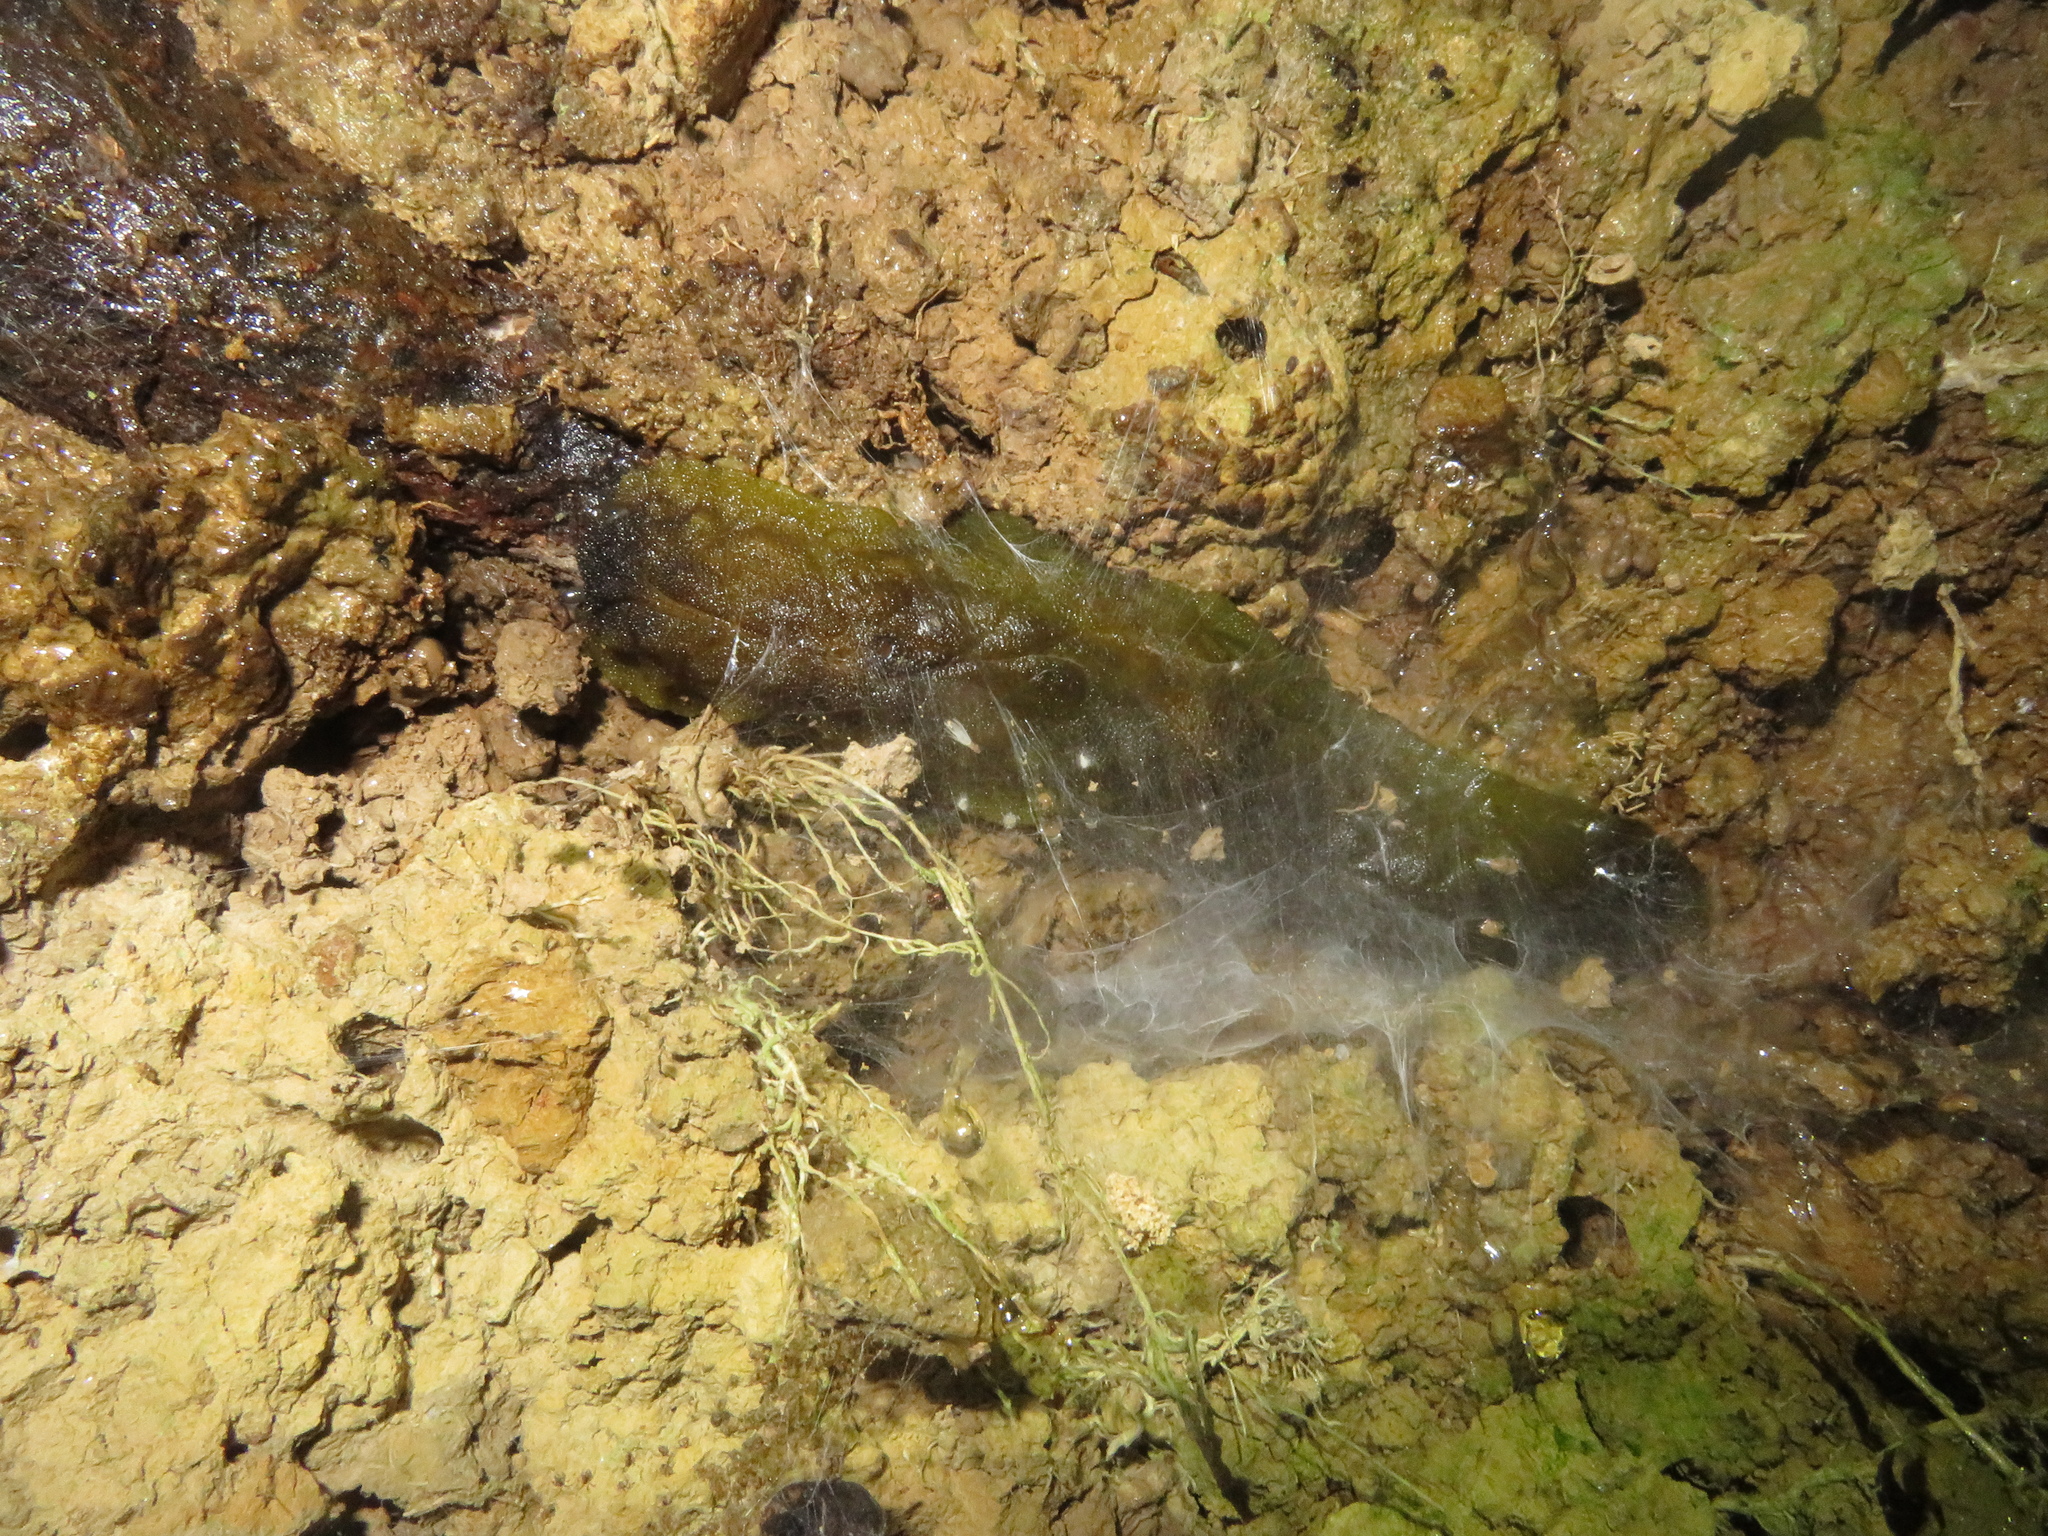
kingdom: Animalia
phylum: Mollusca
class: Gastropoda
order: Stylommatophora
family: Athoracophoridae
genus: Athoracophorus
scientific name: Athoracophorus papillatus
